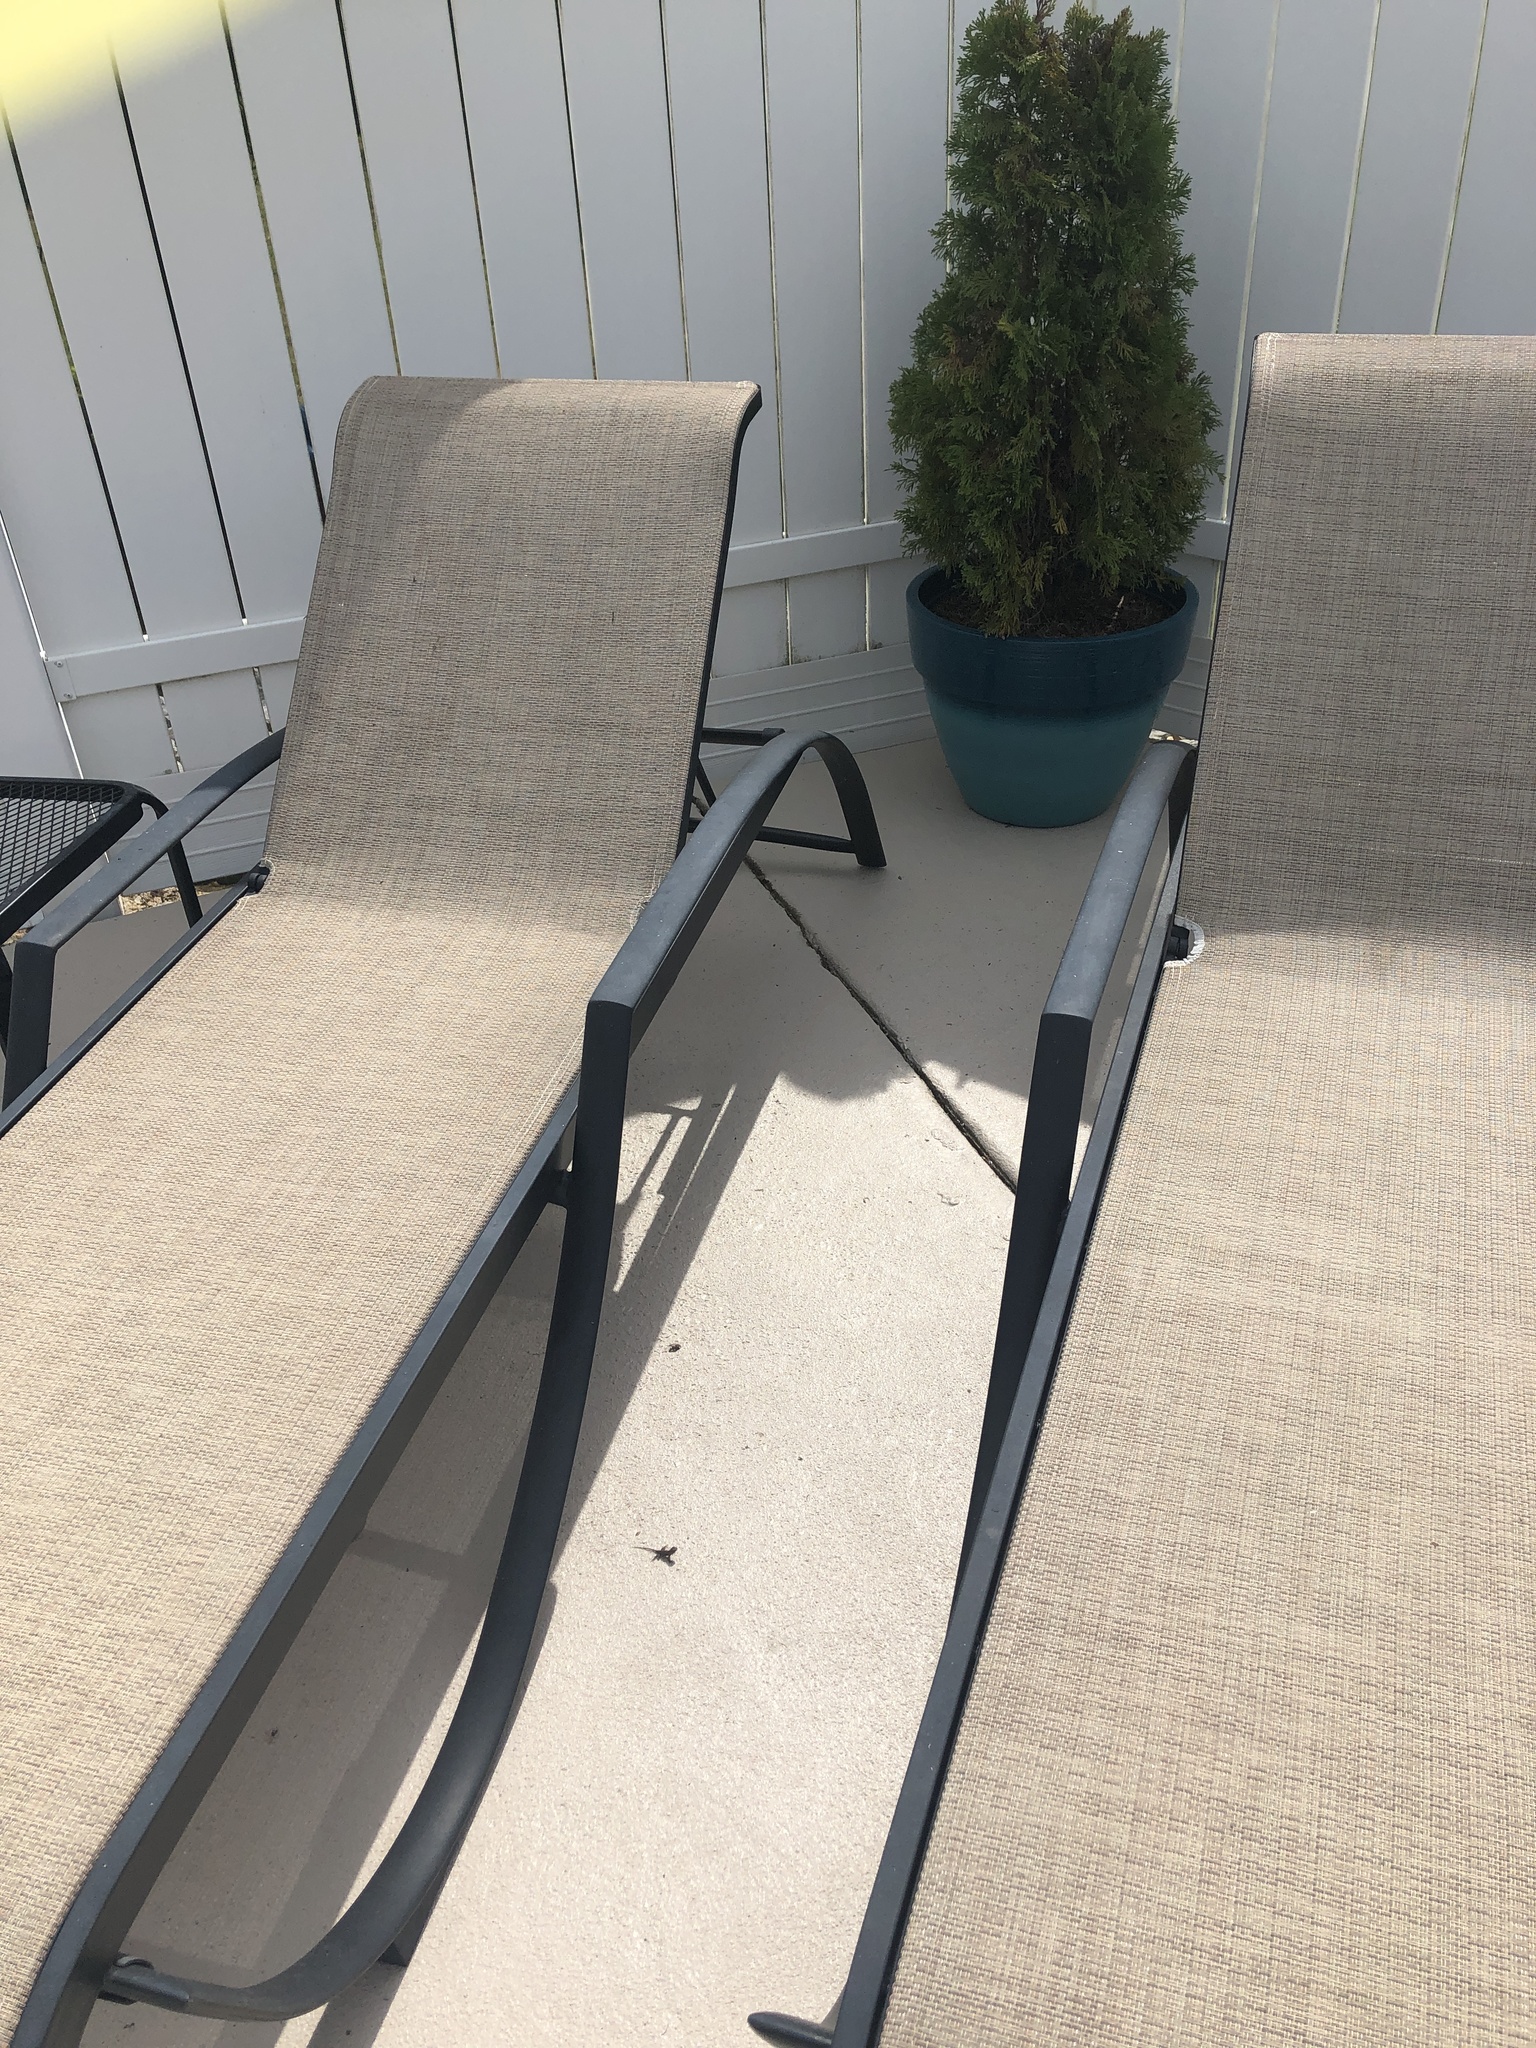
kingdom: Animalia
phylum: Chordata
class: Squamata
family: Phrynosomatidae
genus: Sceloporus
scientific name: Sceloporus undulatus
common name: Eastern fence lizard
